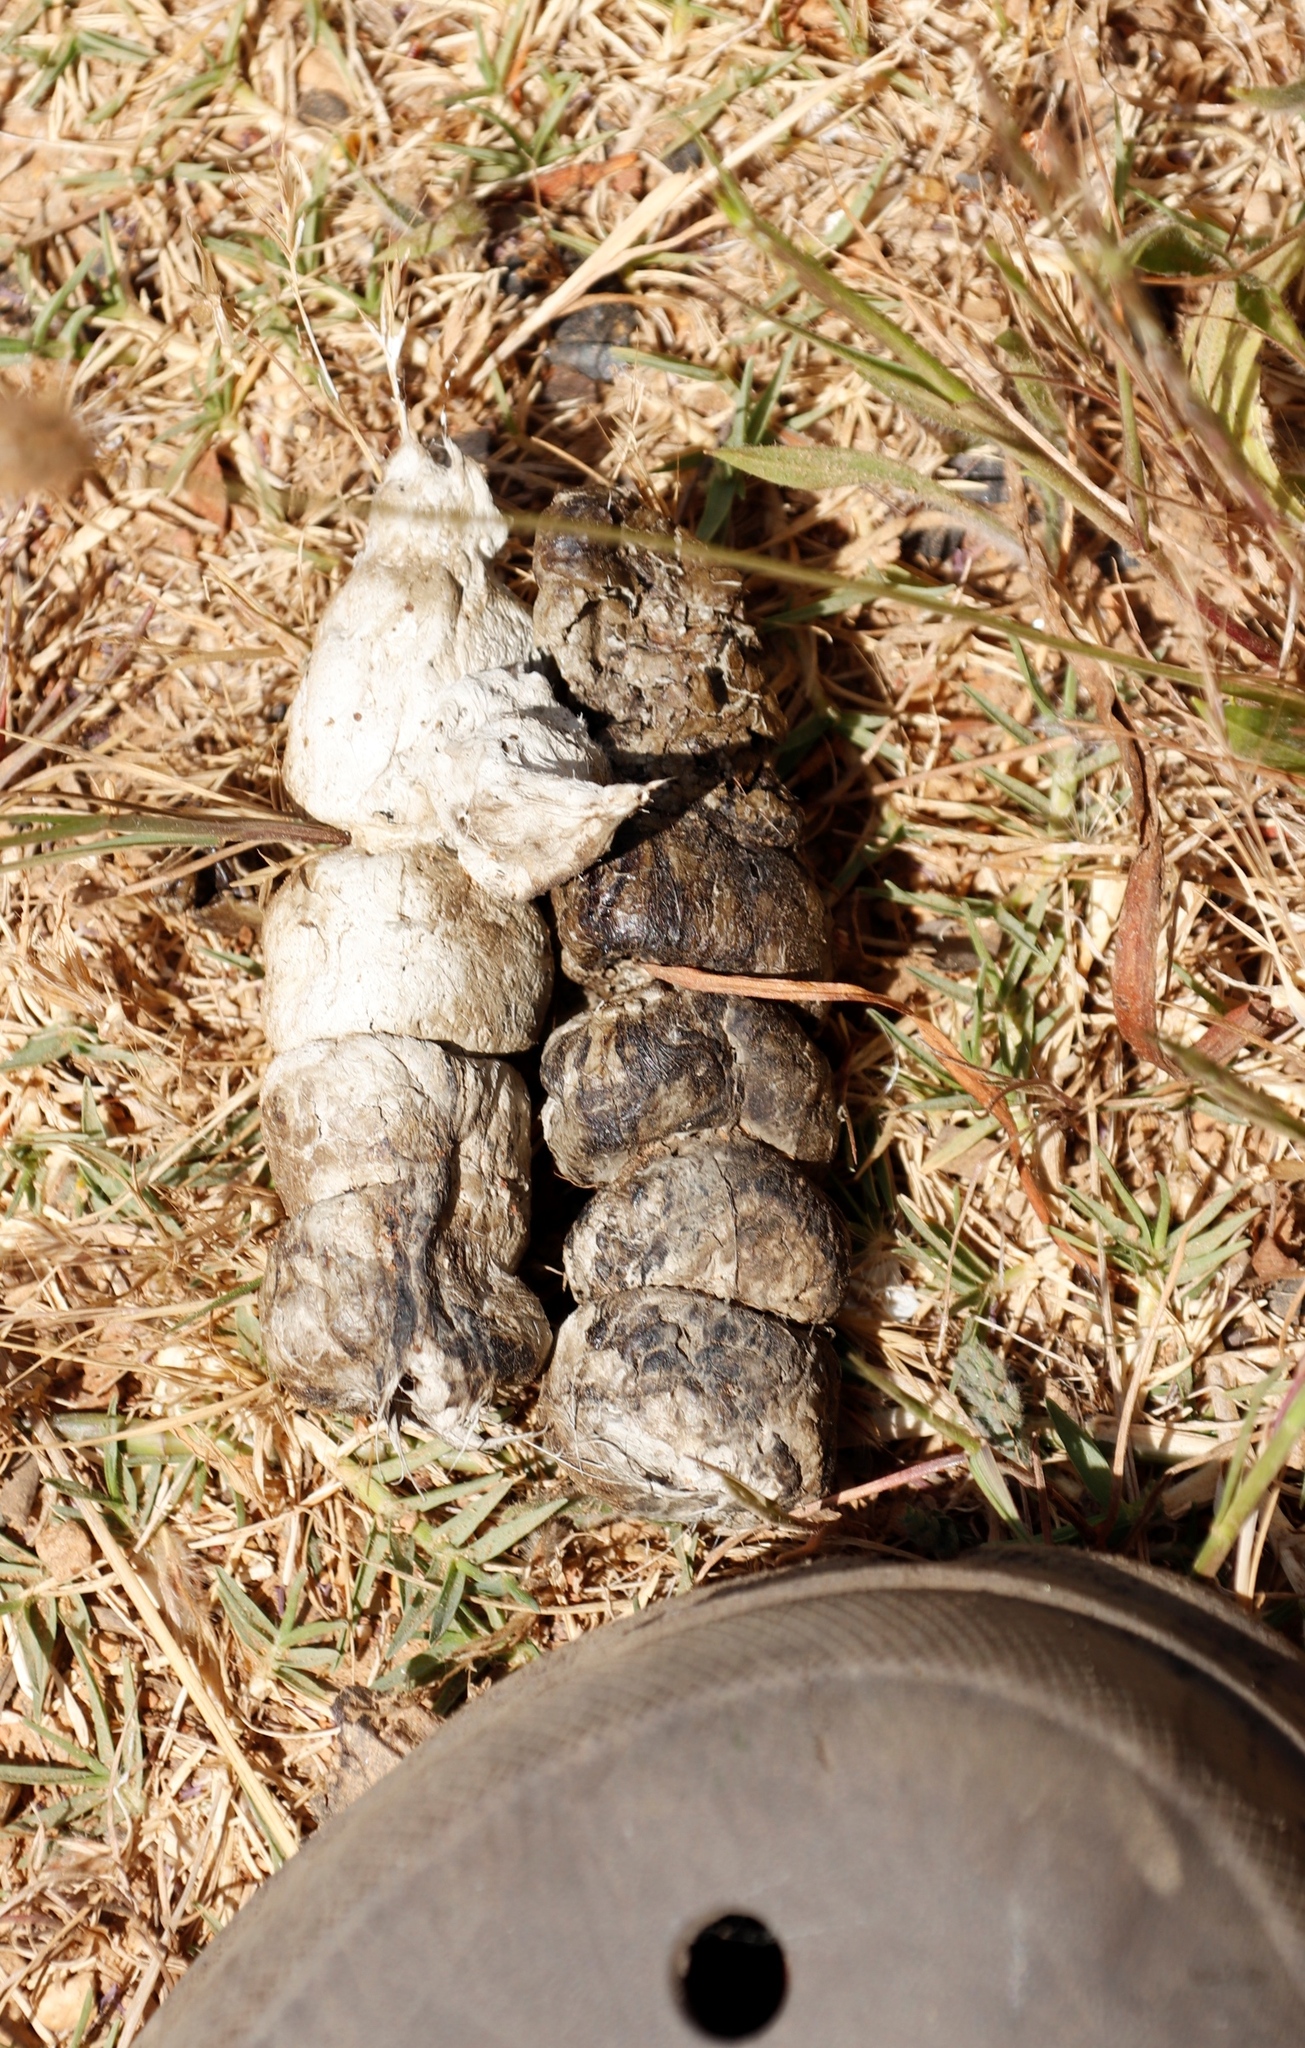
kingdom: Animalia
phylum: Chordata
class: Mammalia
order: Carnivora
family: Felidae
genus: Caracal
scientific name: Caracal caracal
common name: Caracal
